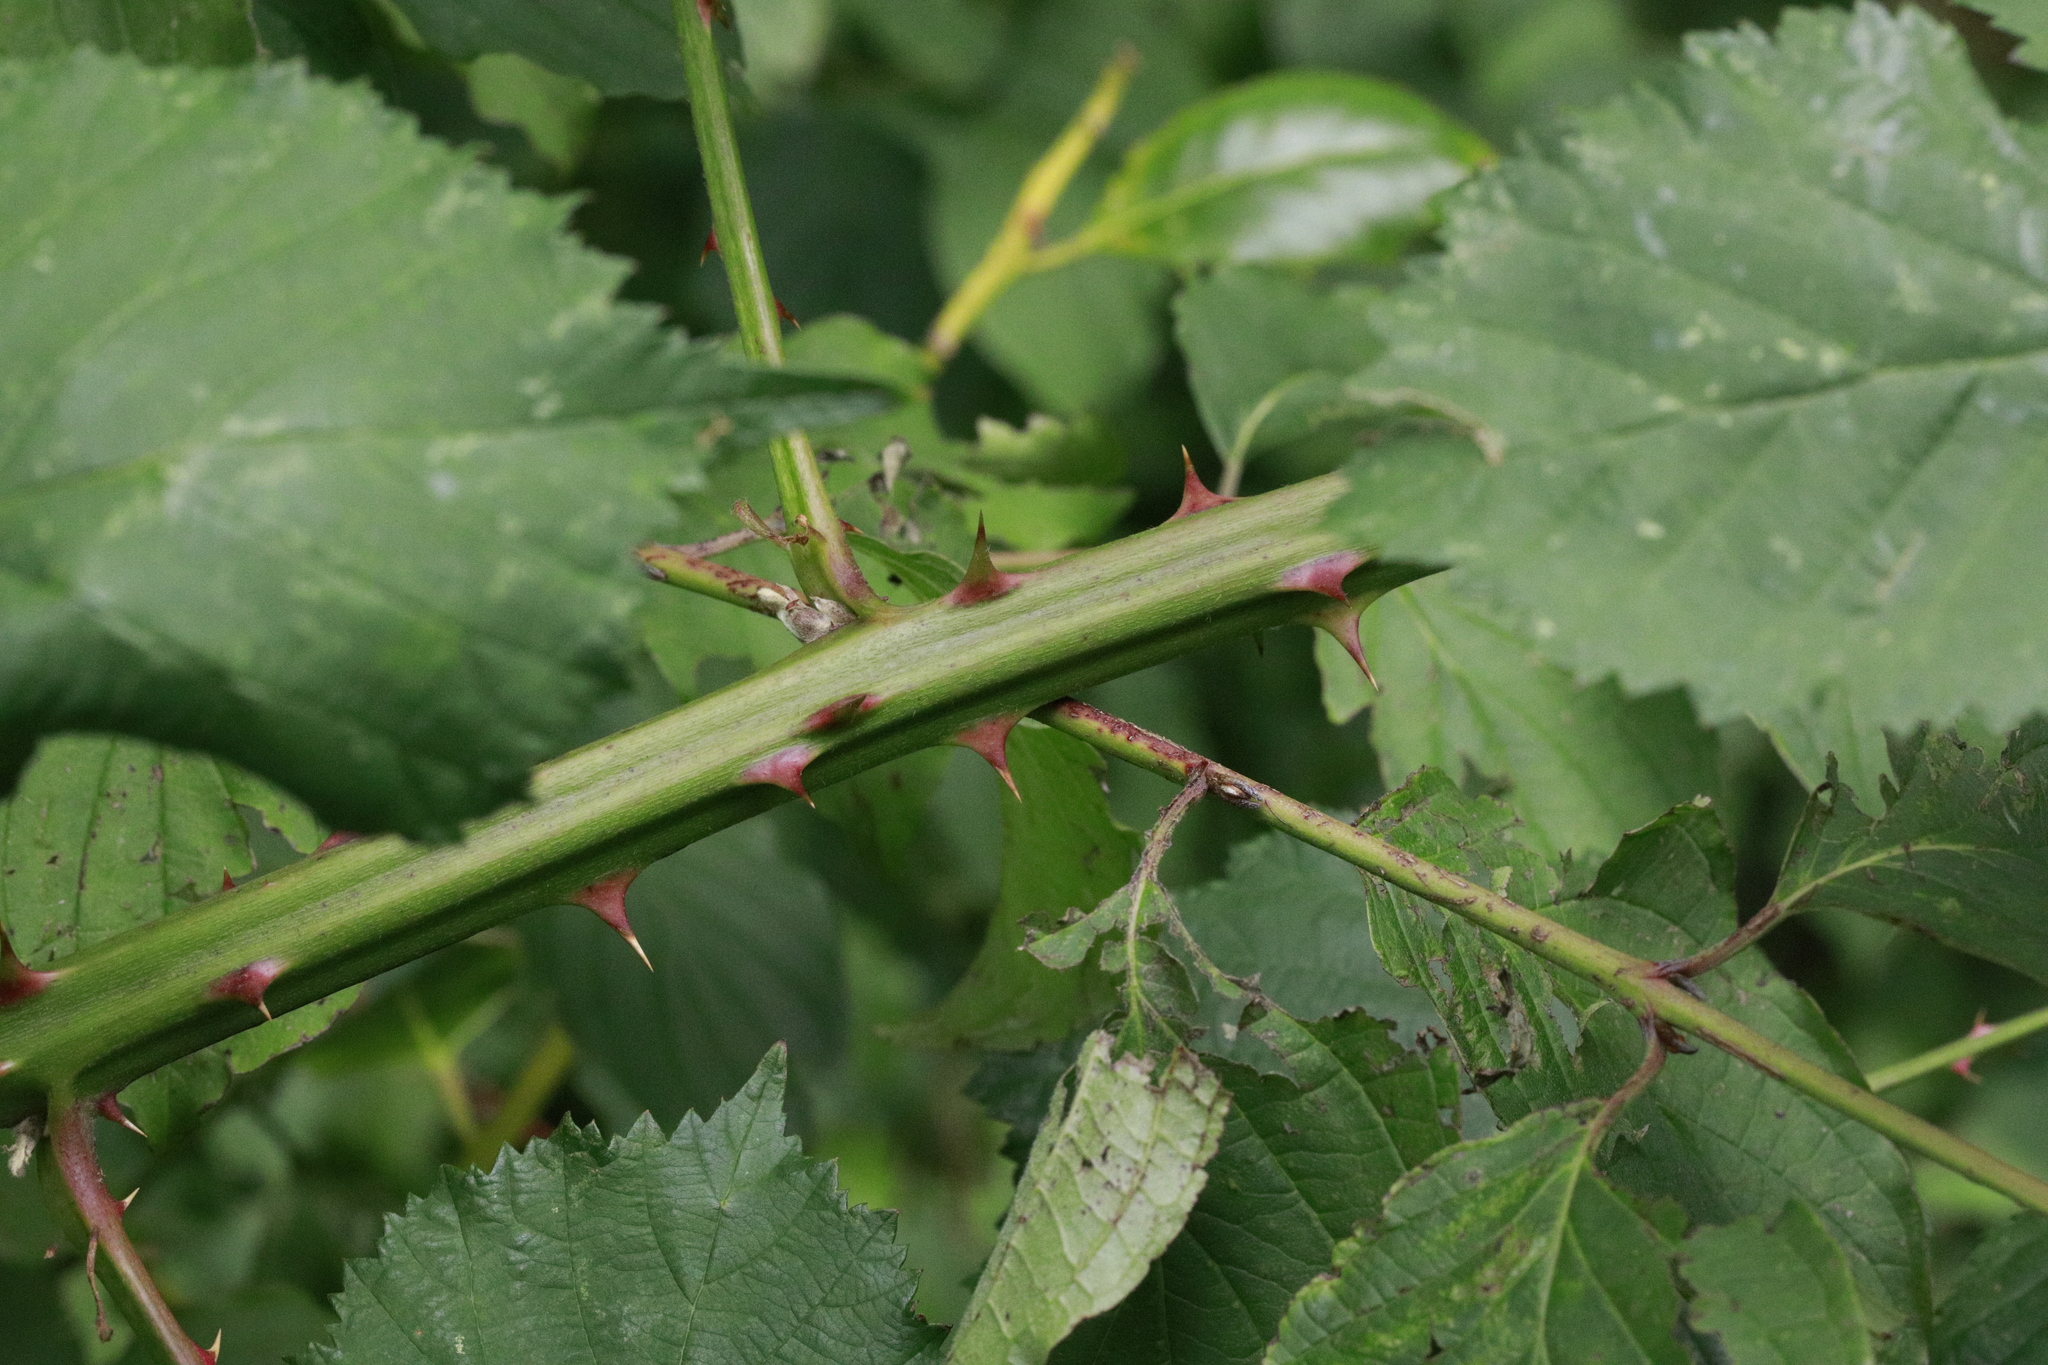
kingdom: Plantae
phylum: Tracheophyta
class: Magnoliopsida
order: Rosales
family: Rosaceae
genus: Rubus
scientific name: Rubus armeniacus
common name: Himalayan blackberry
